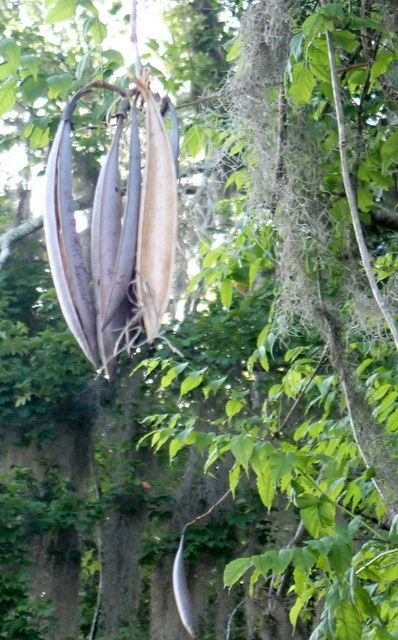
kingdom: Plantae
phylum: Tracheophyta
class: Magnoliopsida
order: Lamiales
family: Bignoniaceae
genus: Campsis
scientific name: Campsis radicans
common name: Trumpet-creeper
